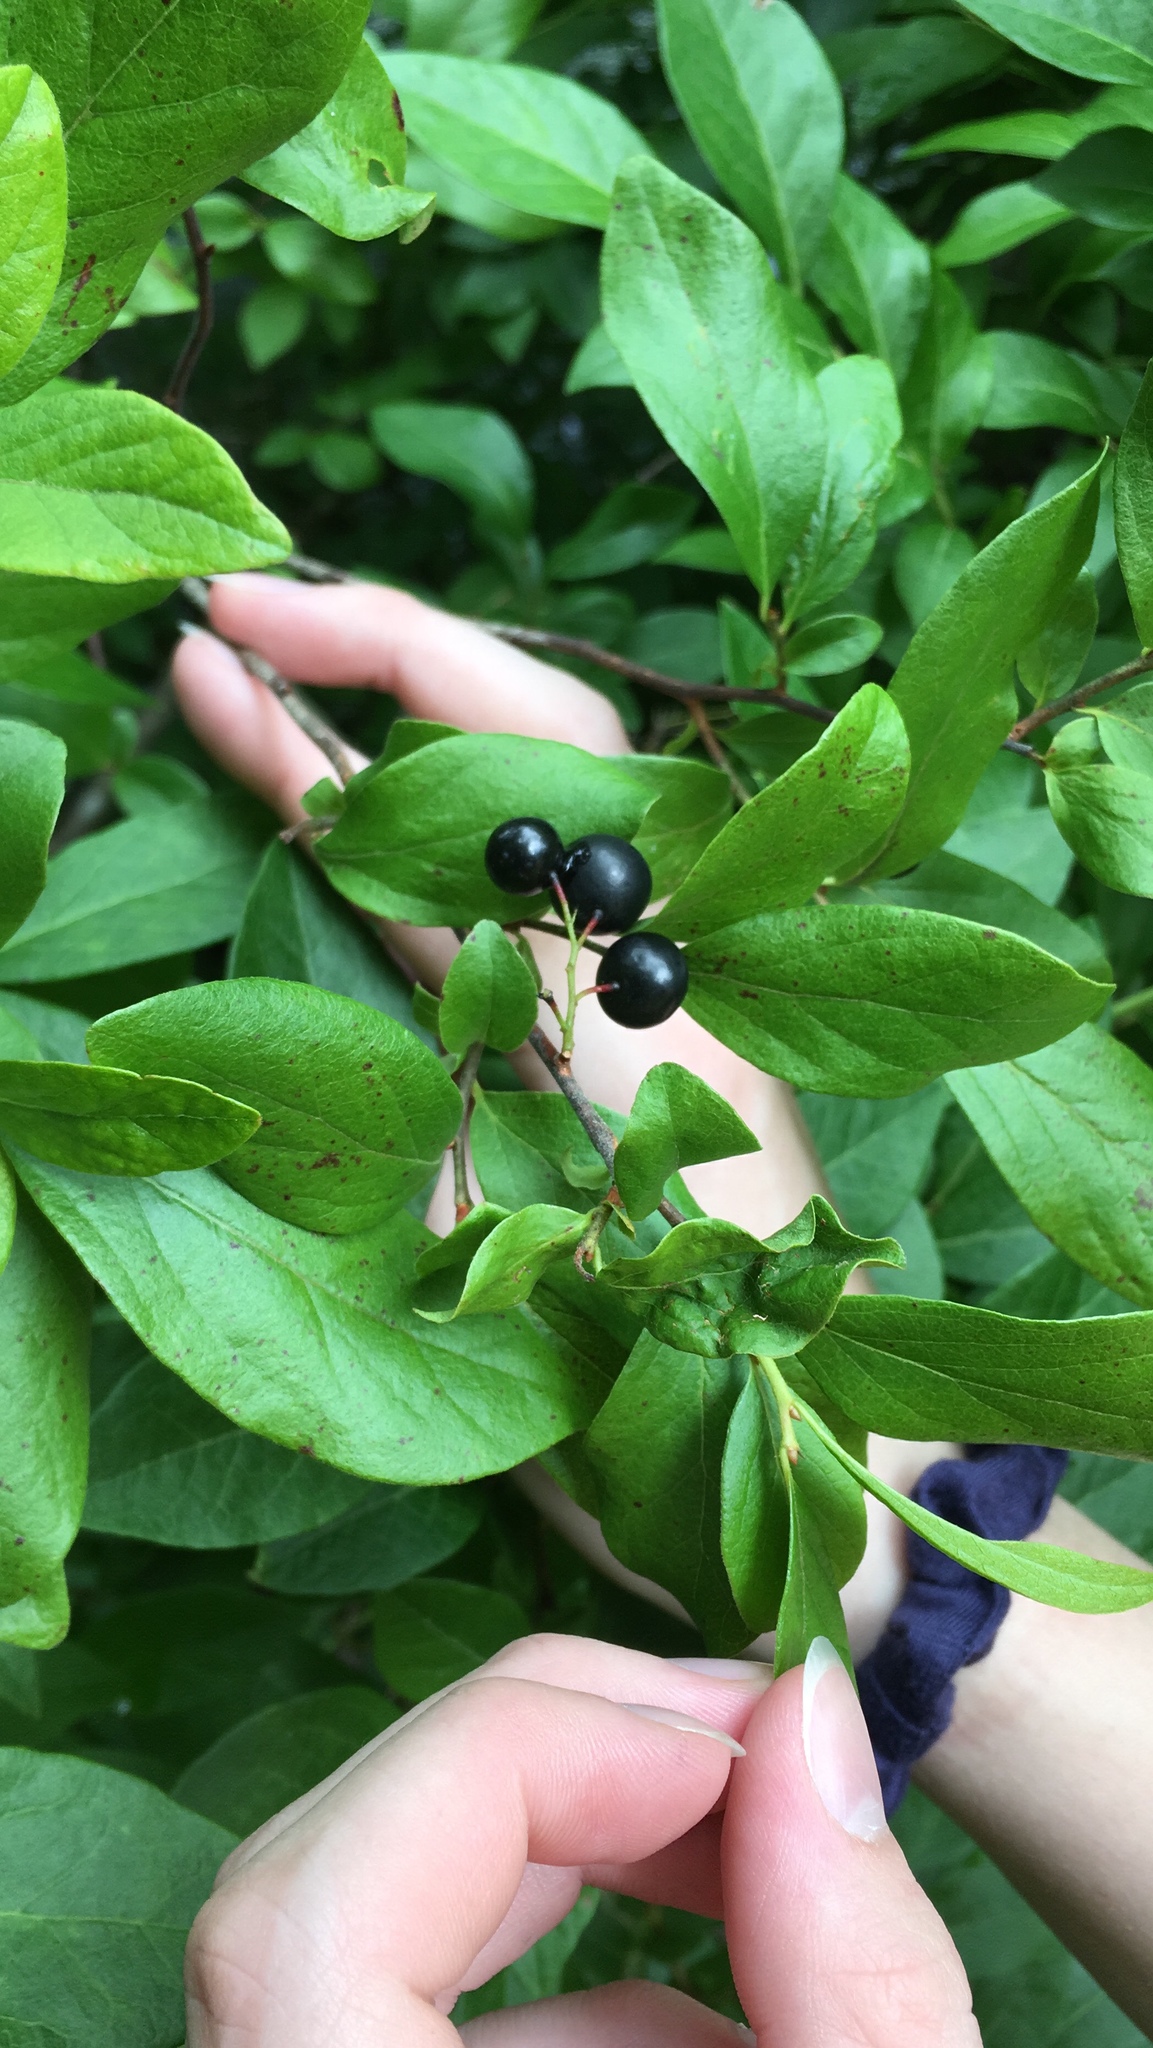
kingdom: Plantae
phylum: Tracheophyta
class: Magnoliopsida
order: Ericales
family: Ericaceae
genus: Gaylussacia
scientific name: Gaylussacia baccata
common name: Black huckleberry
